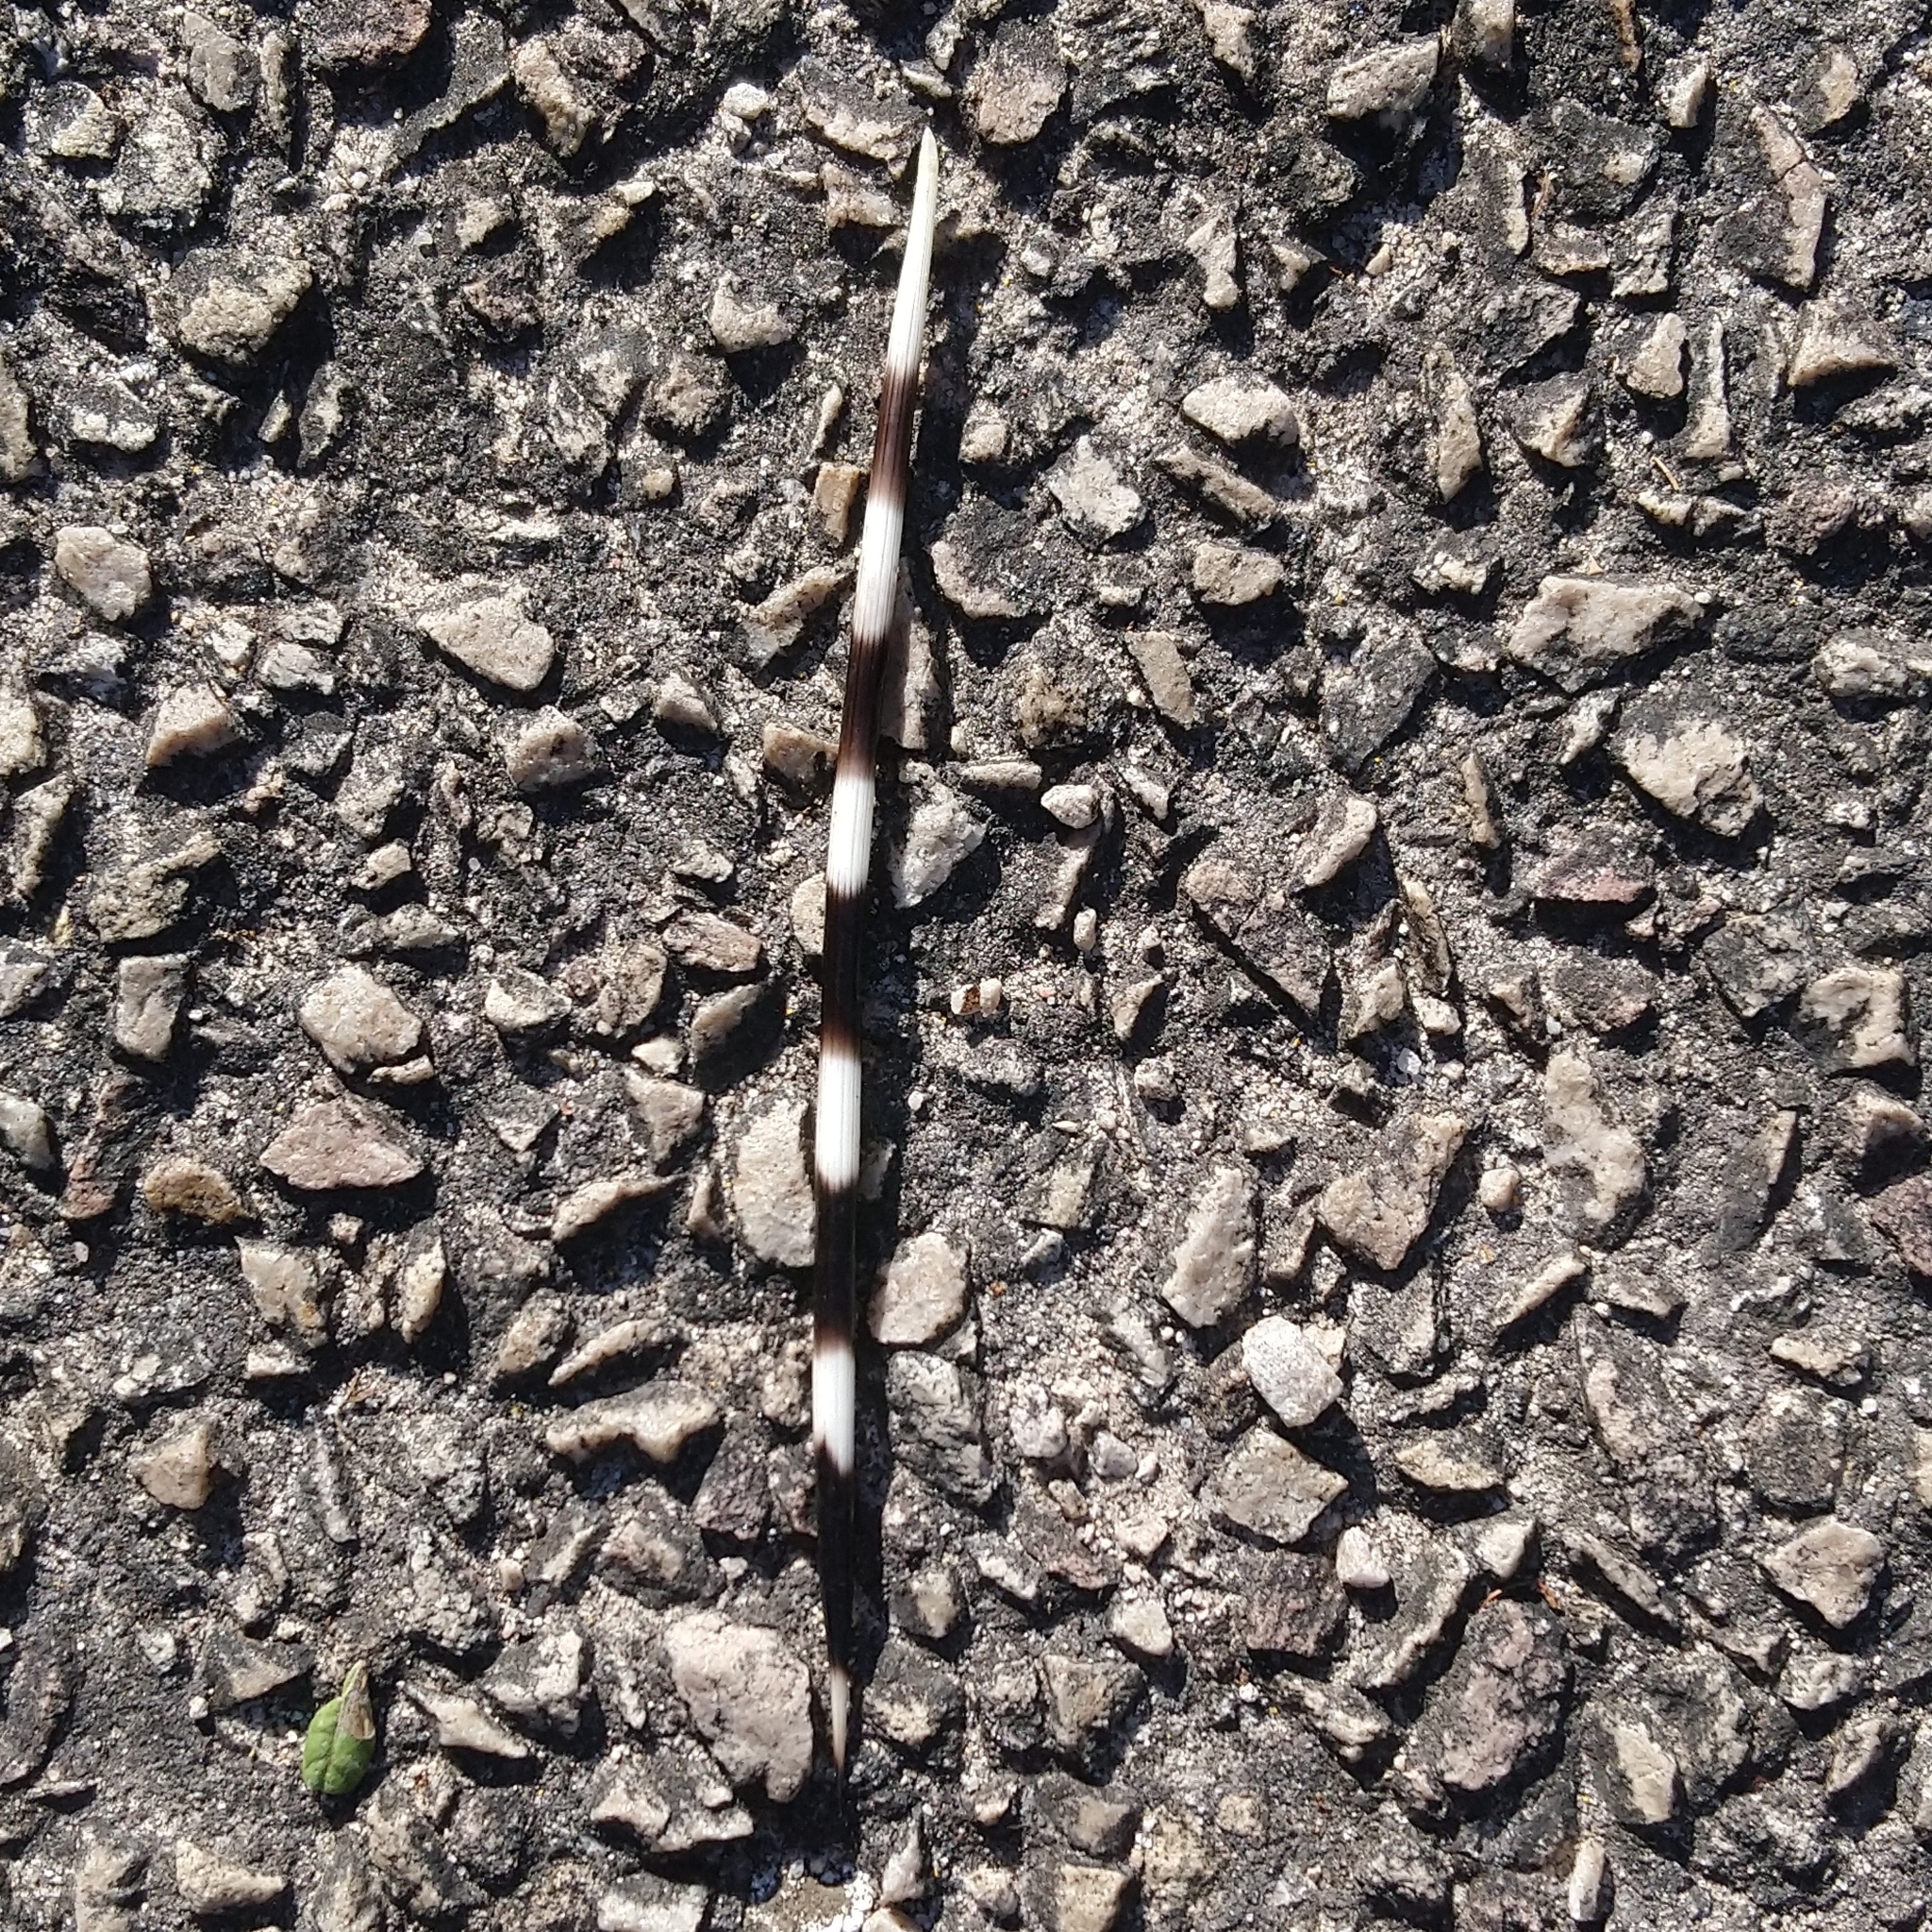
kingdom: Animalia
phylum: Chordata
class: Mammalia
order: Rodentia
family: Hystricidae
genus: Hystrix
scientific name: Hystrix africaeaustralis
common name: Cape porcupine
